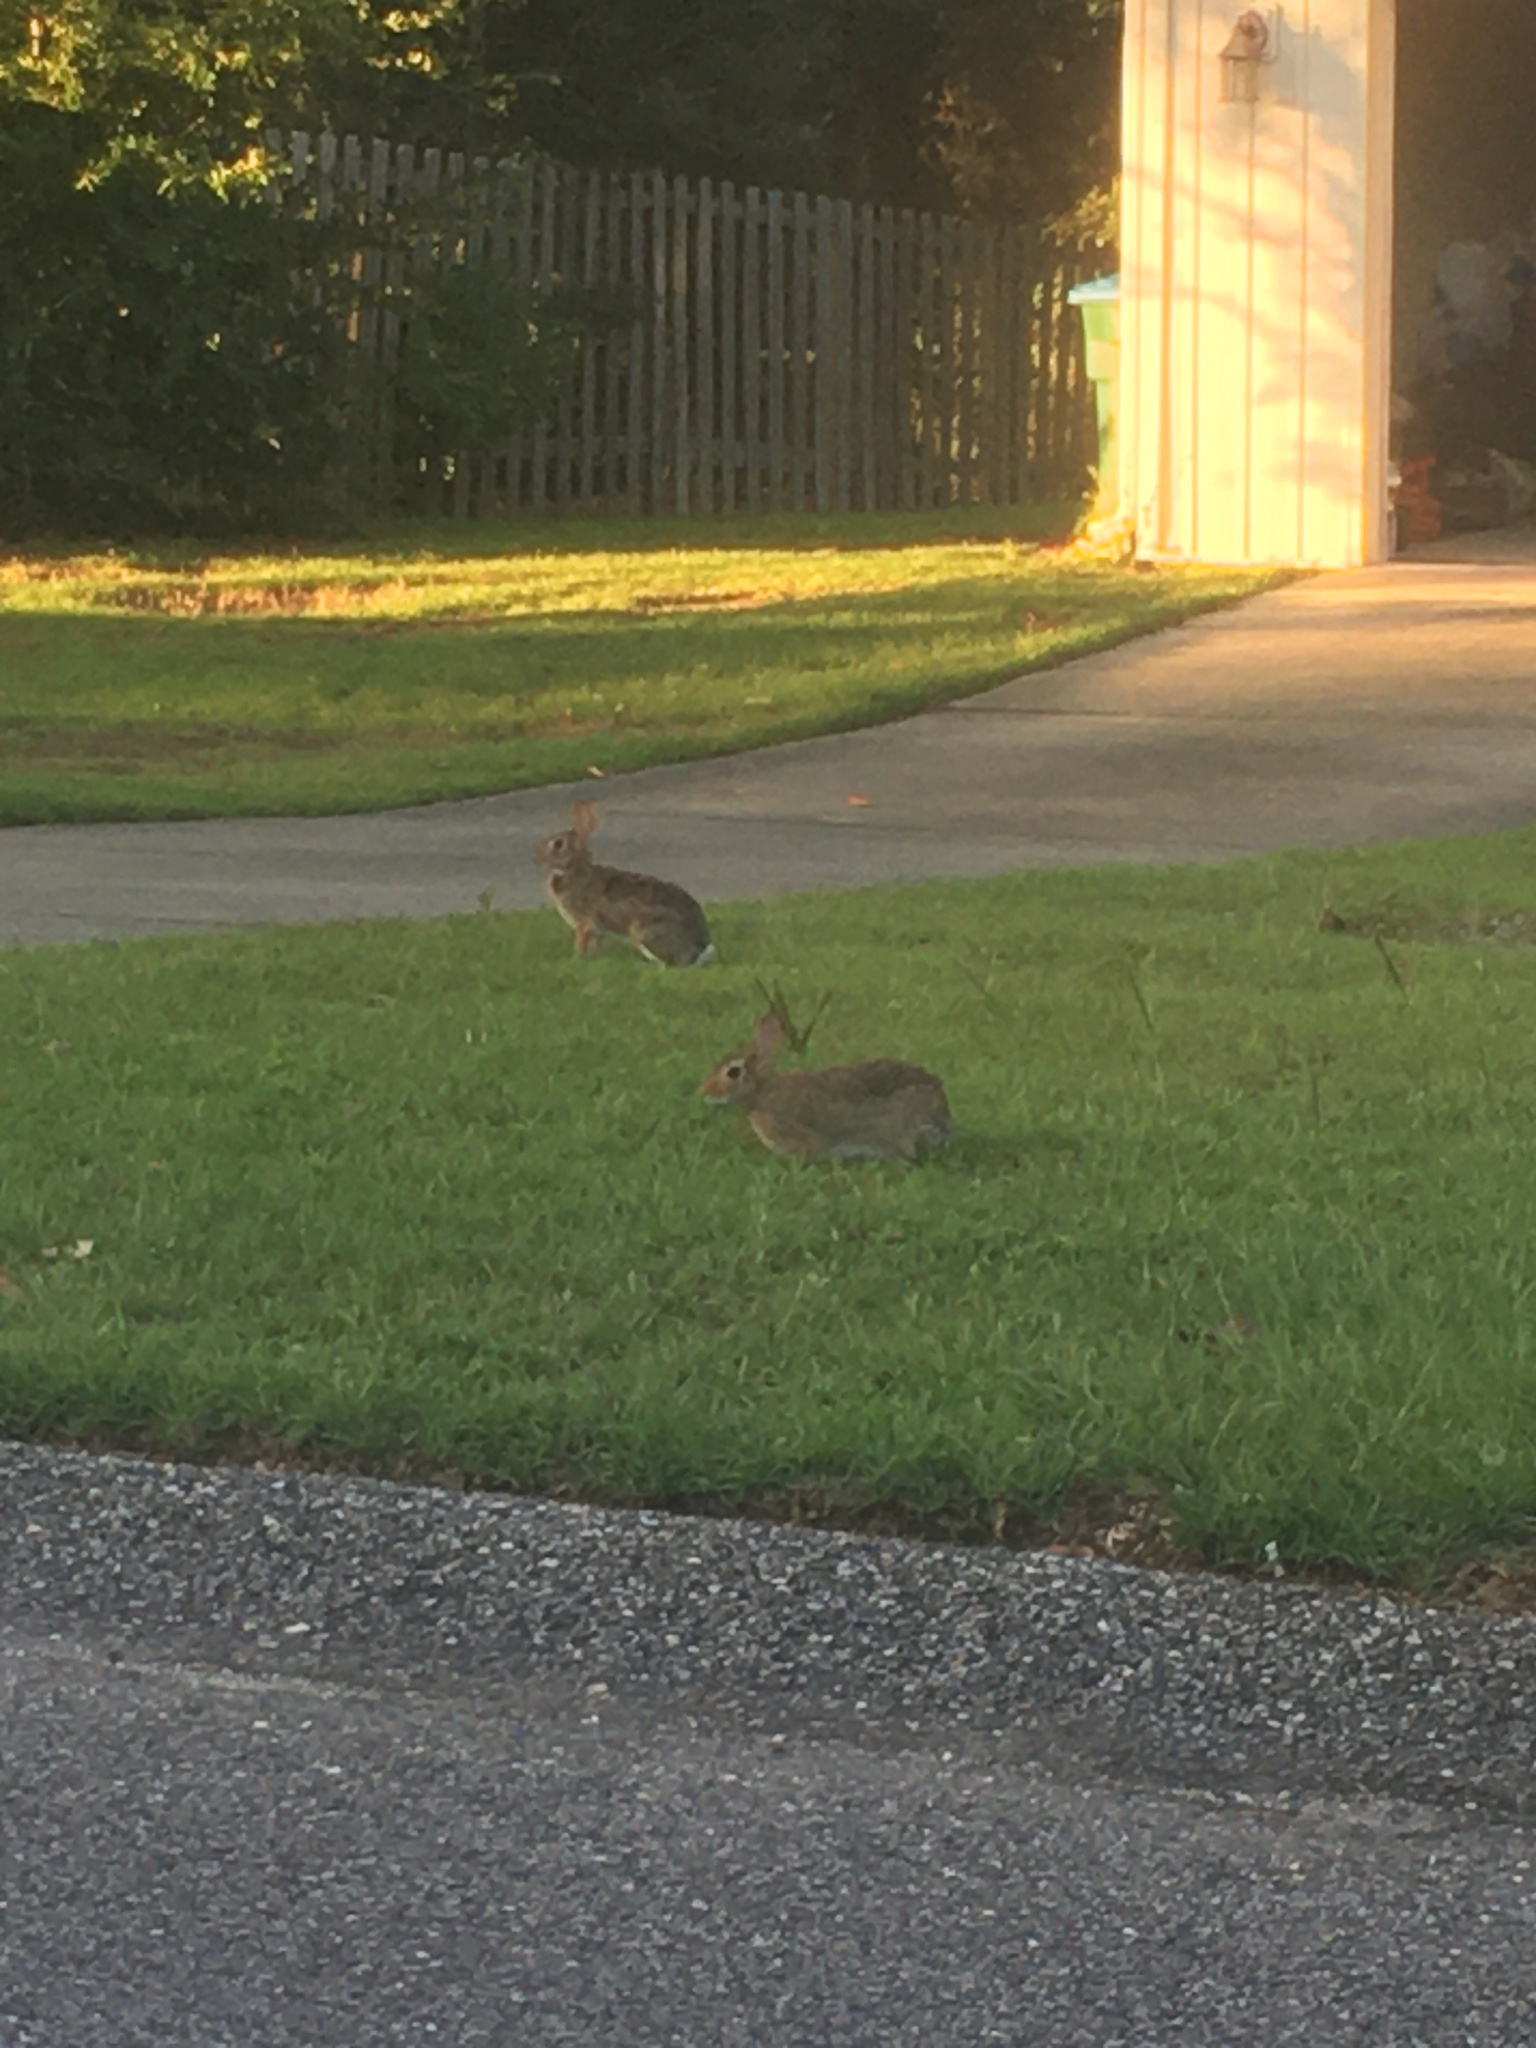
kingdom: Animalia
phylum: Chordata
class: Mammalia
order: Lagomorpha
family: Leporidae
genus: Sylvilagus
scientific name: Sylvilagus floridanus
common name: Eastern cottontail
